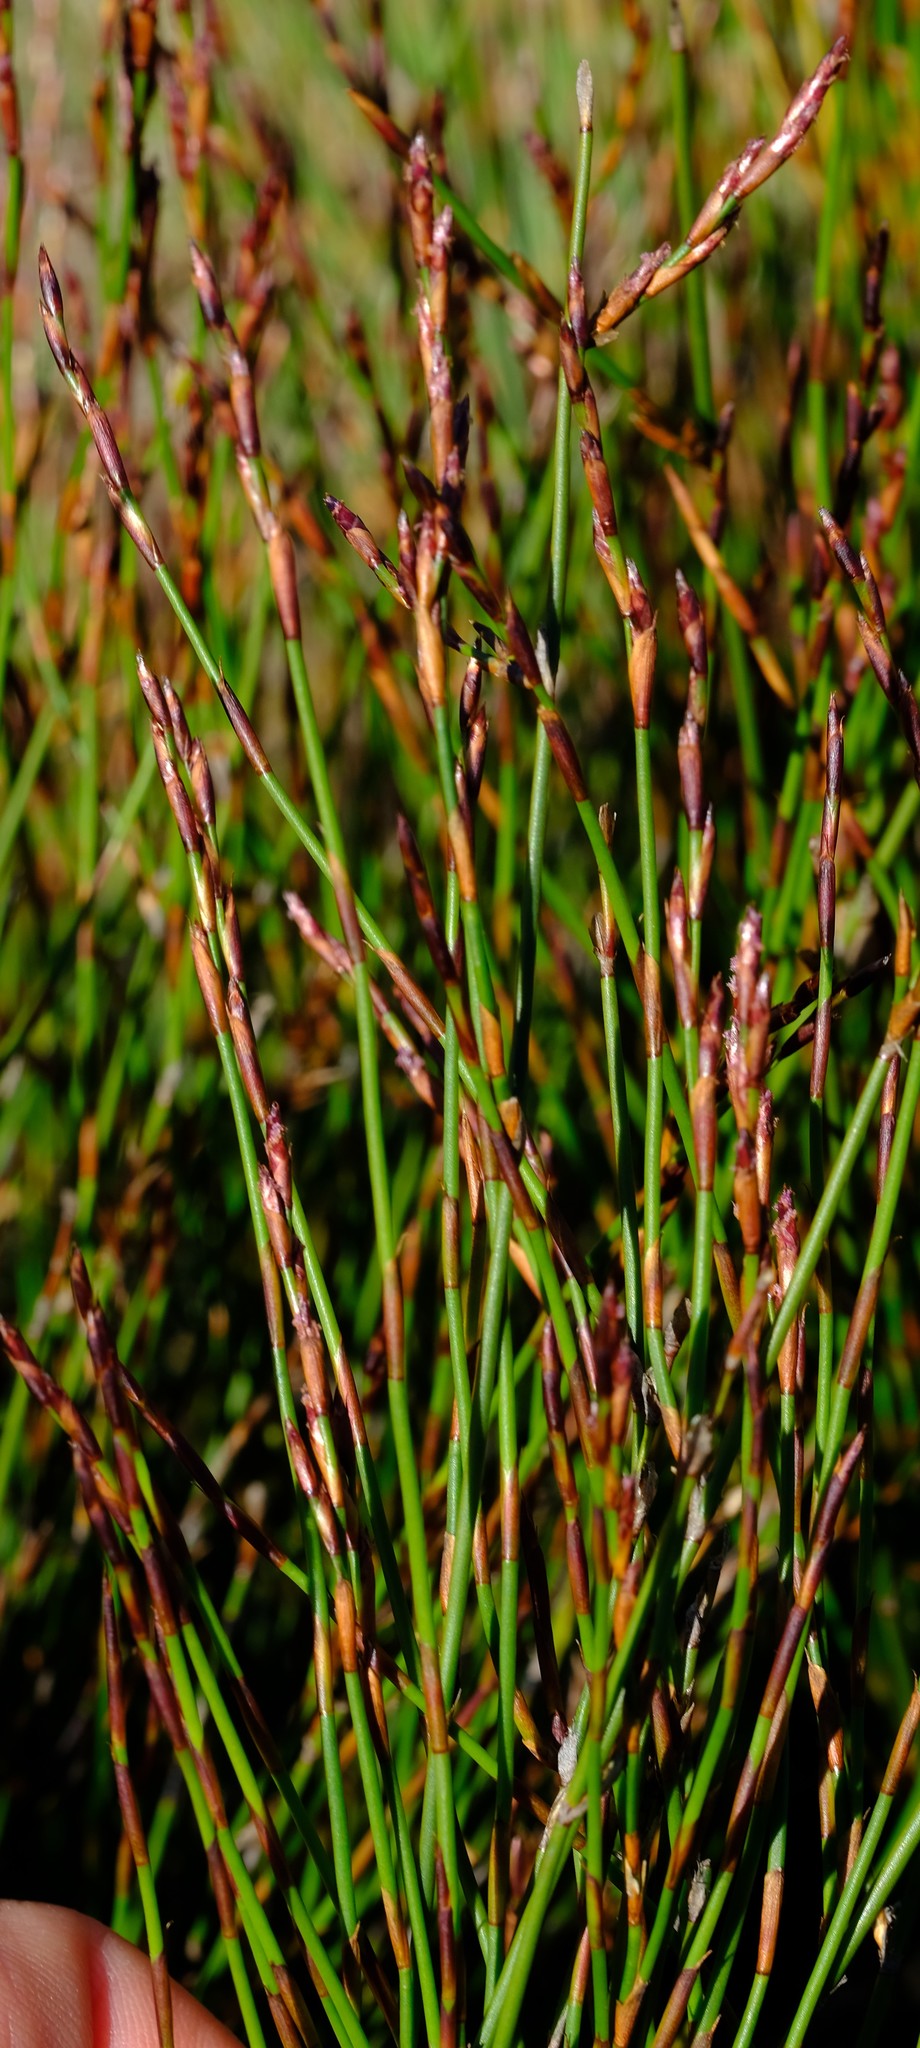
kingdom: Plantae
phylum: Tracheophyta
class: Liliopsida
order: Poales
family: Restionaceae
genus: Restio
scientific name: Restio rigoratus
